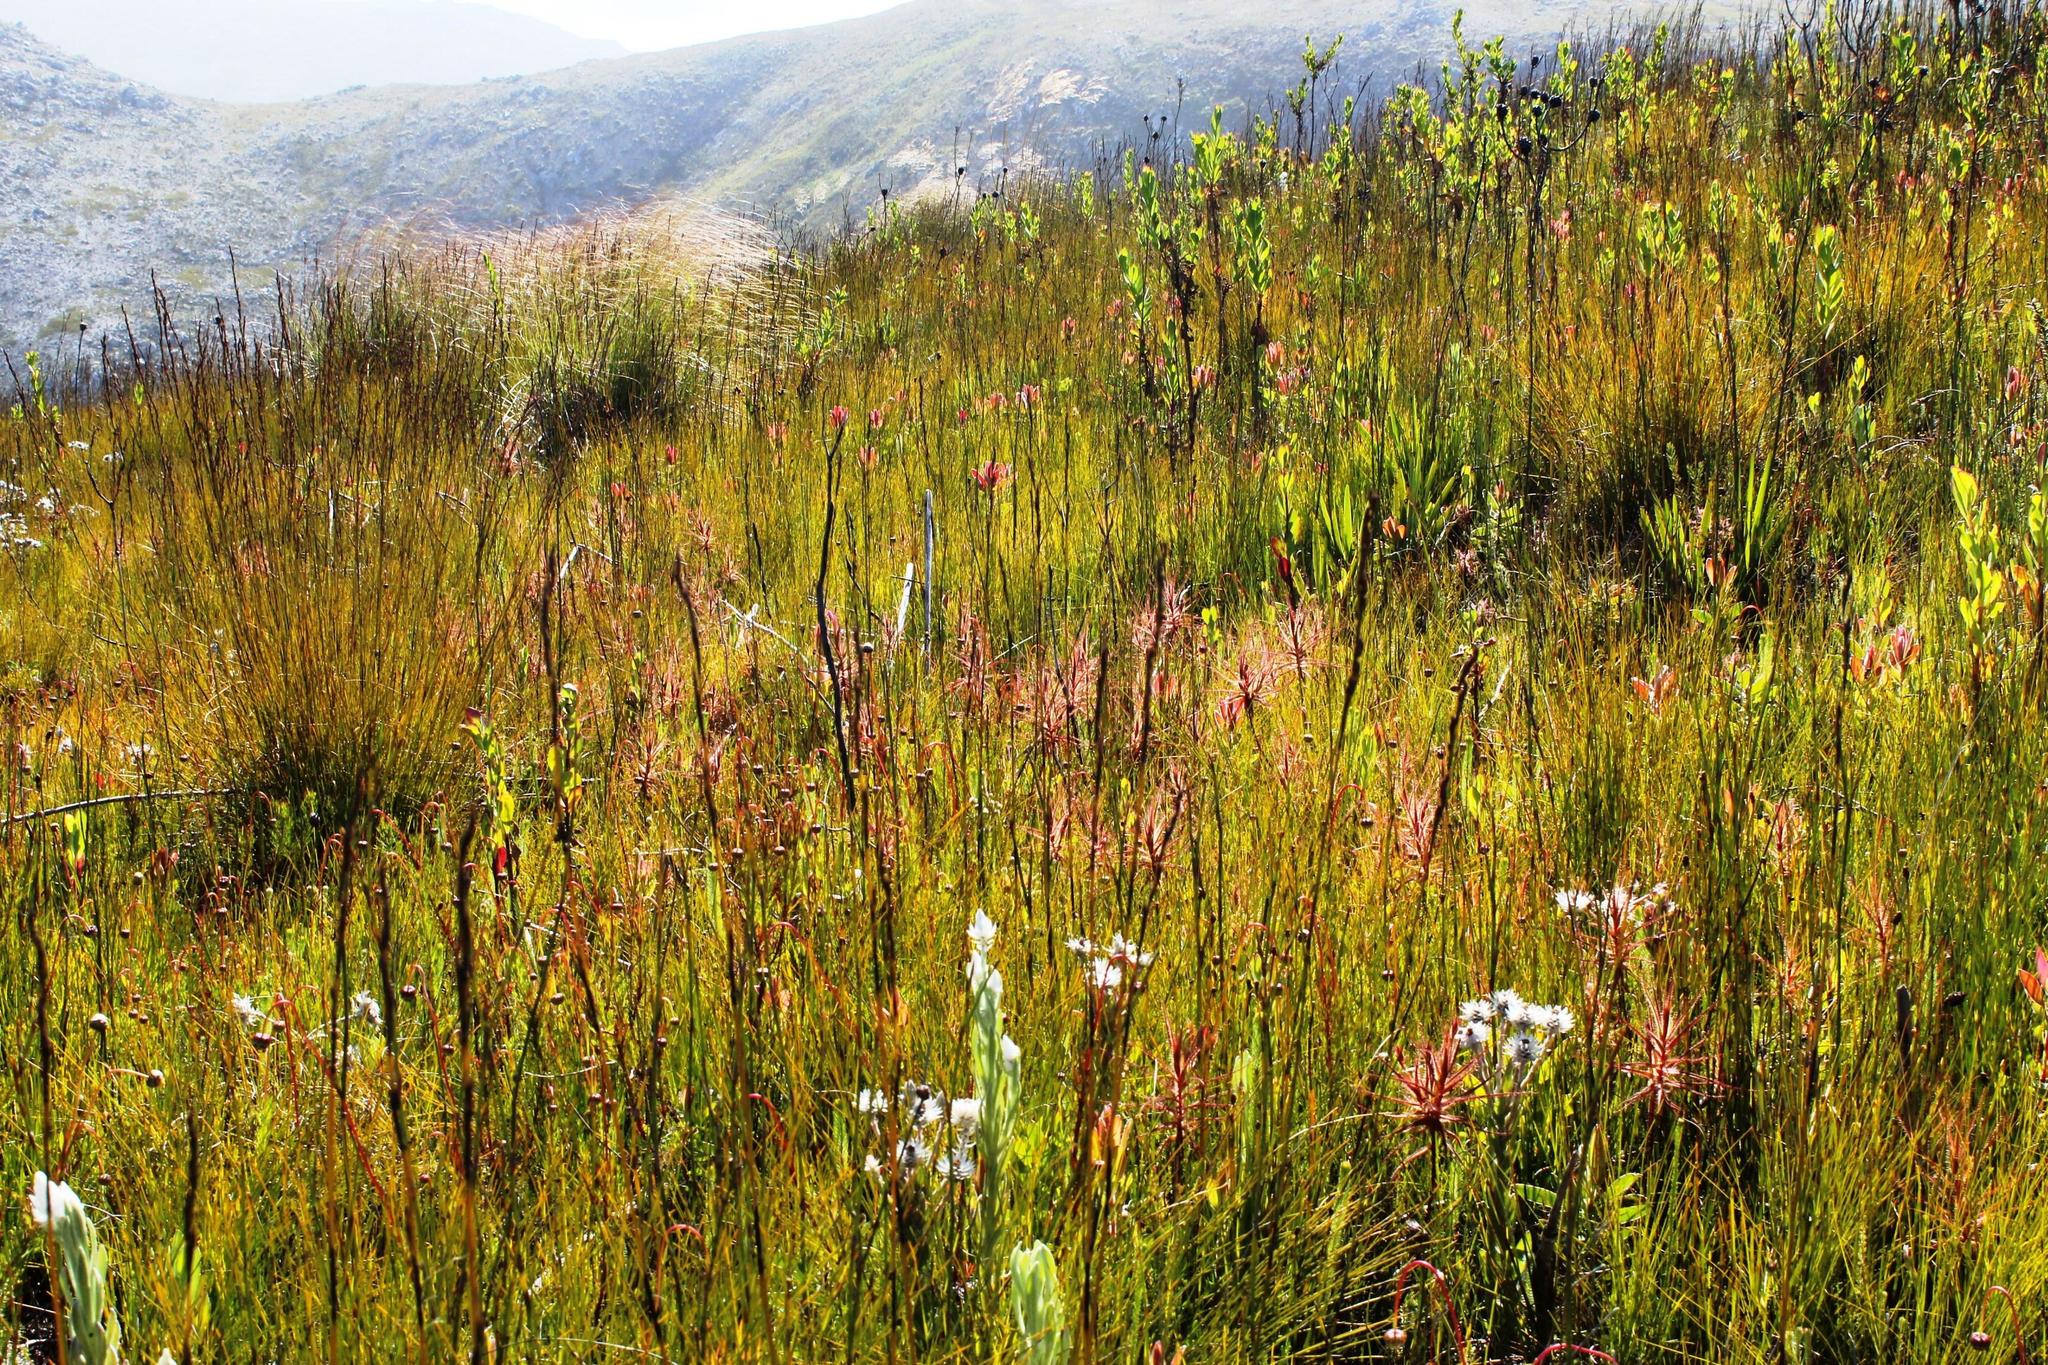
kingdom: Plantae
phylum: Tracheophyta
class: Magnoliopsida
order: Ericales
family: Roridulaceae
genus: Roridula
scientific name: Roridula gorgonias
